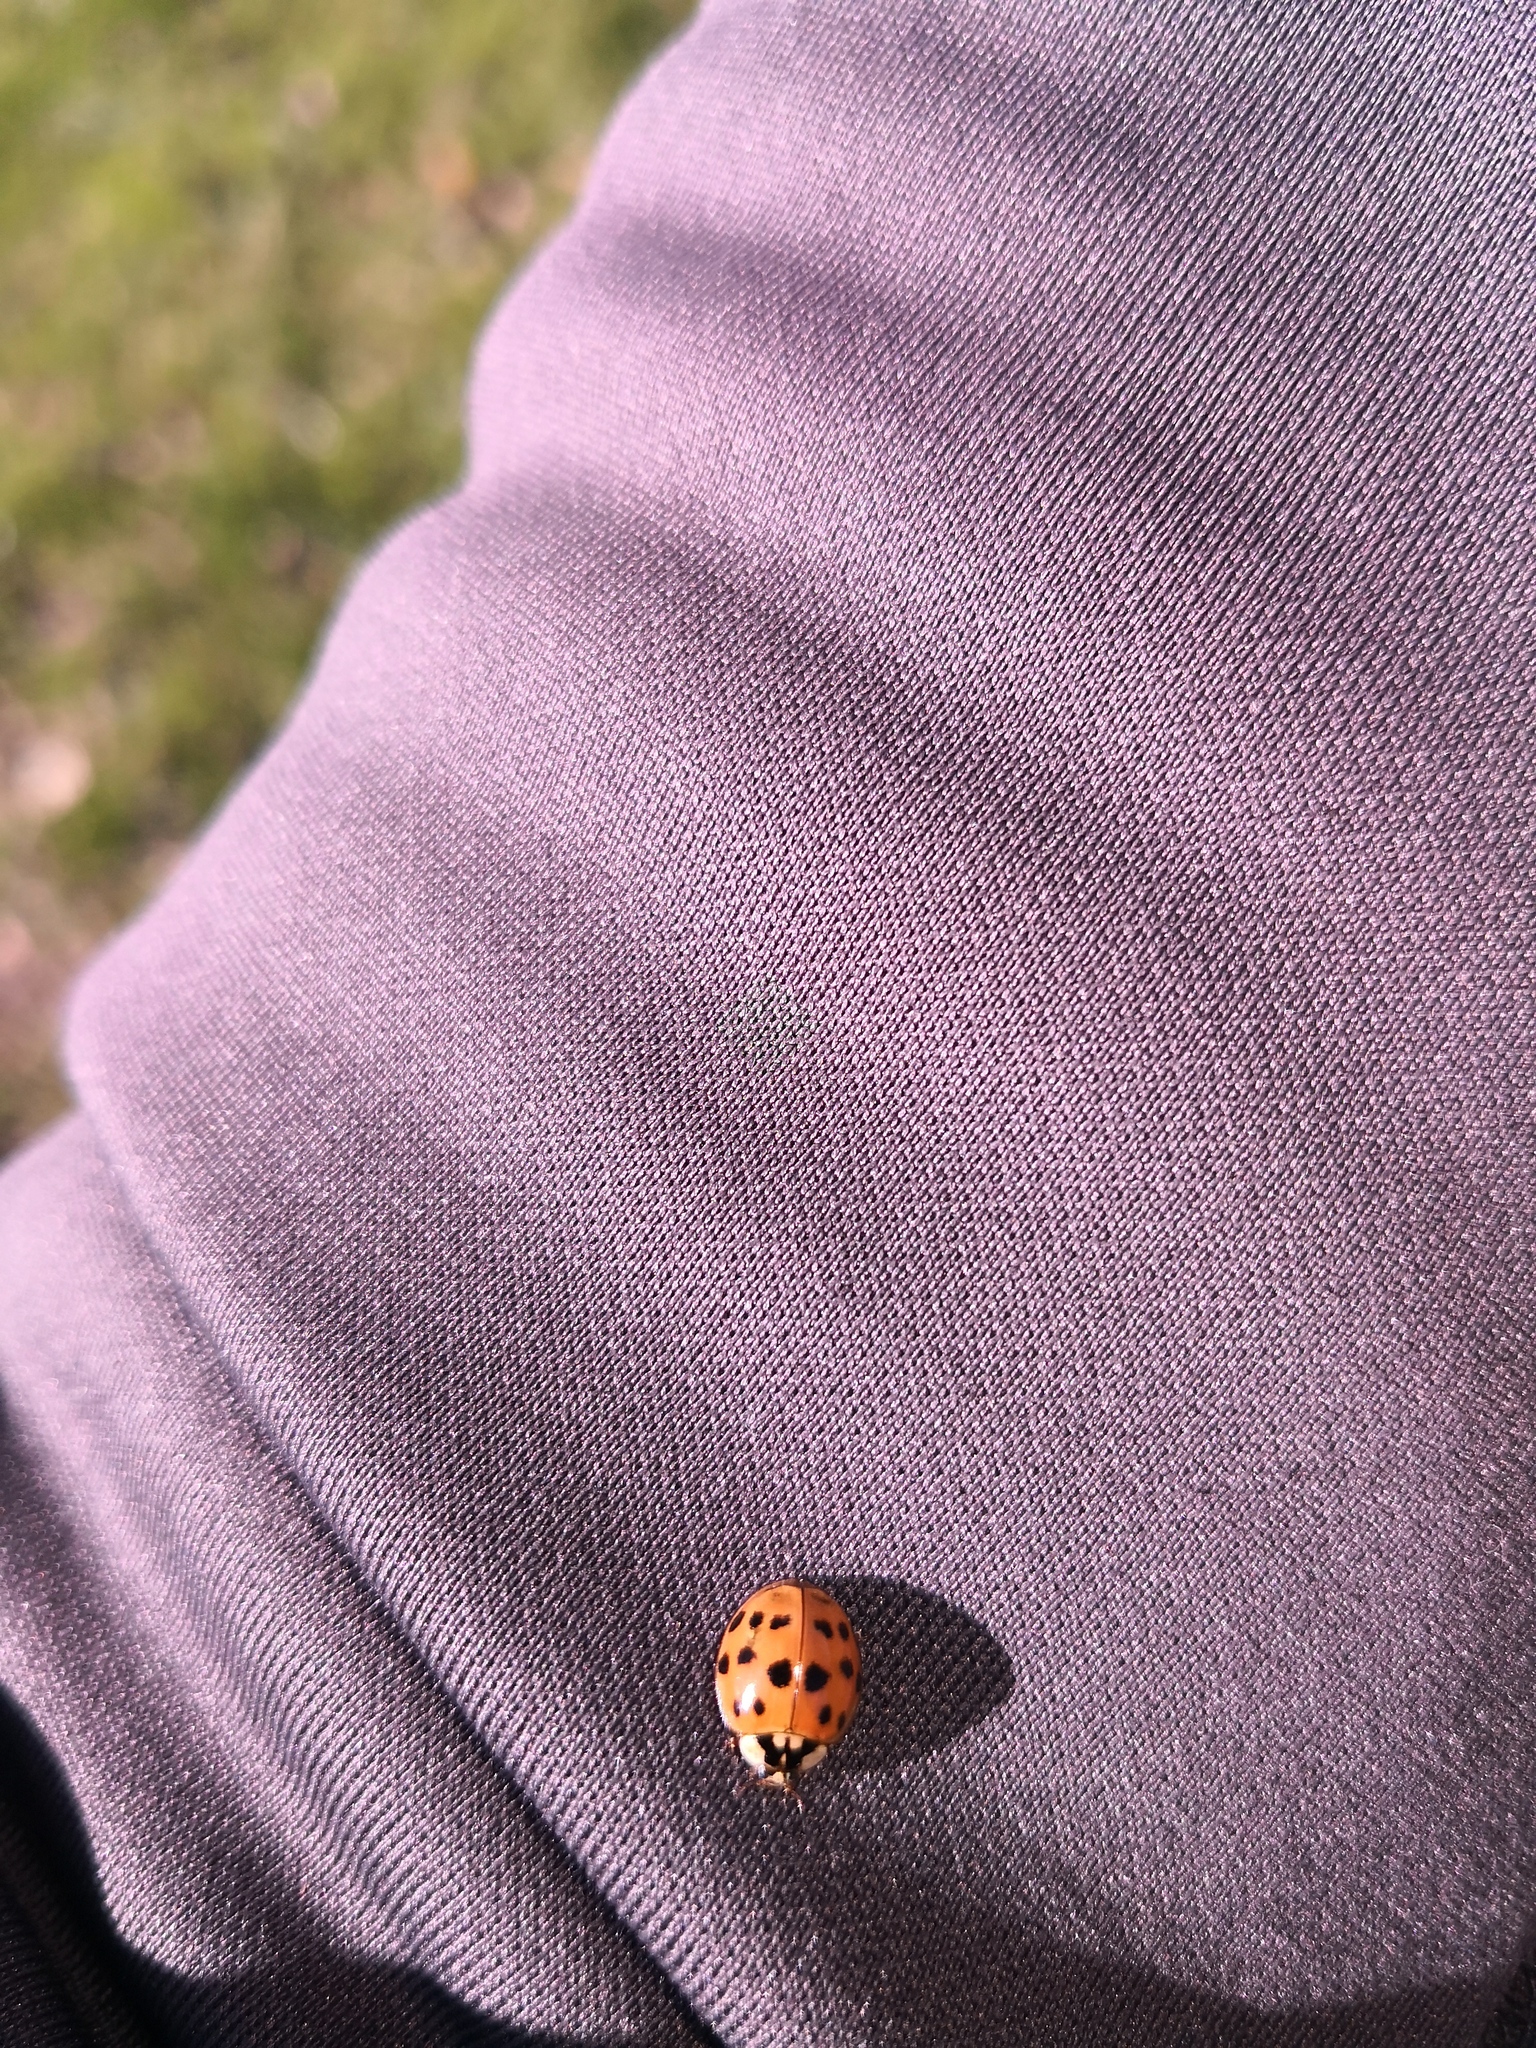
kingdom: Animalia
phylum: Arthropoda
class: Insecta
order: Coleoptera
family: Coccinellidae
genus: Harmonia
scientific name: Harmonia axyridis
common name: Harlequin ladybird
